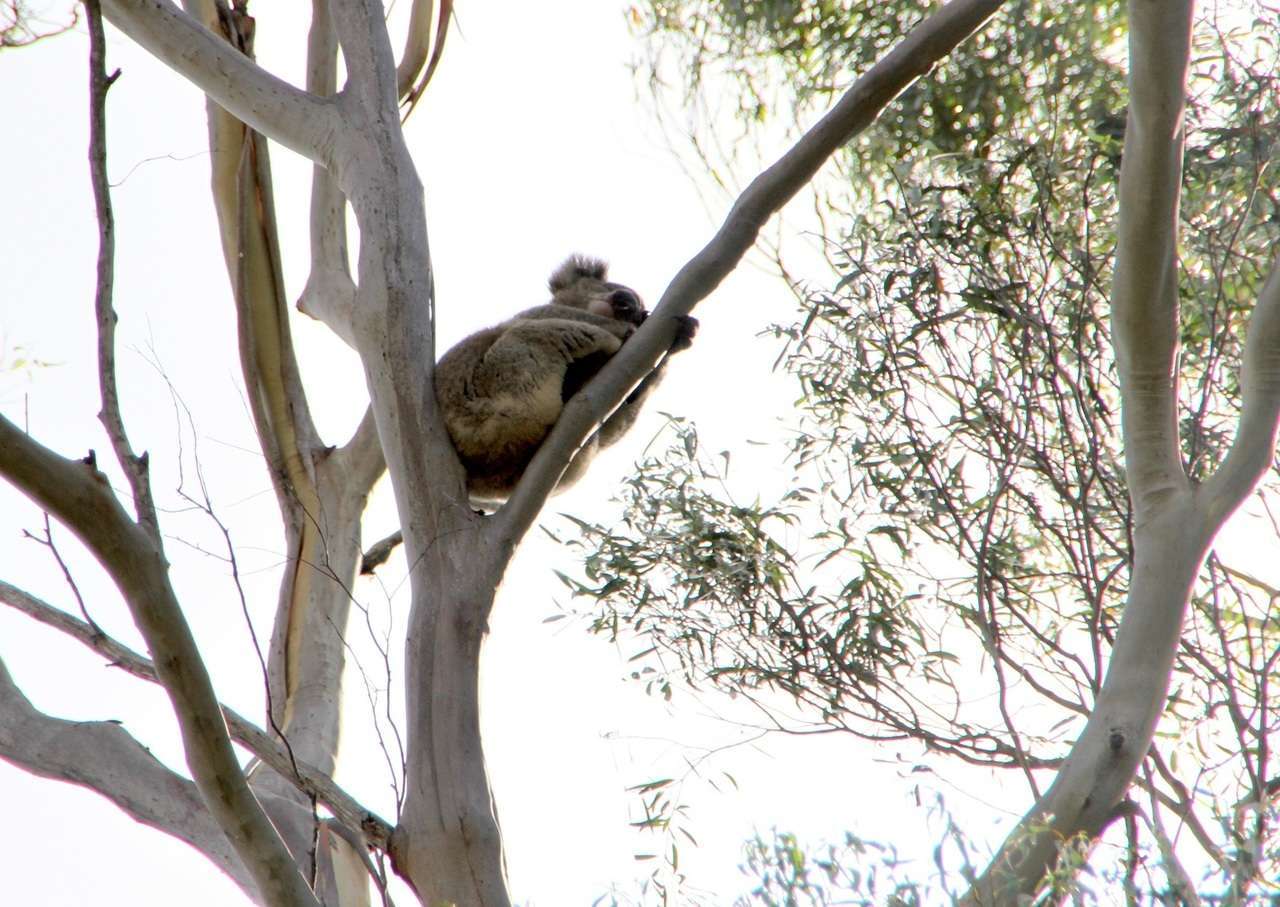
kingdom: Animalia
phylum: Chordata
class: Mammalia
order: Diprotodontia
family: Phascolarctidae
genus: Phascolarctos
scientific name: Phascolarctos cinereus
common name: Koala
